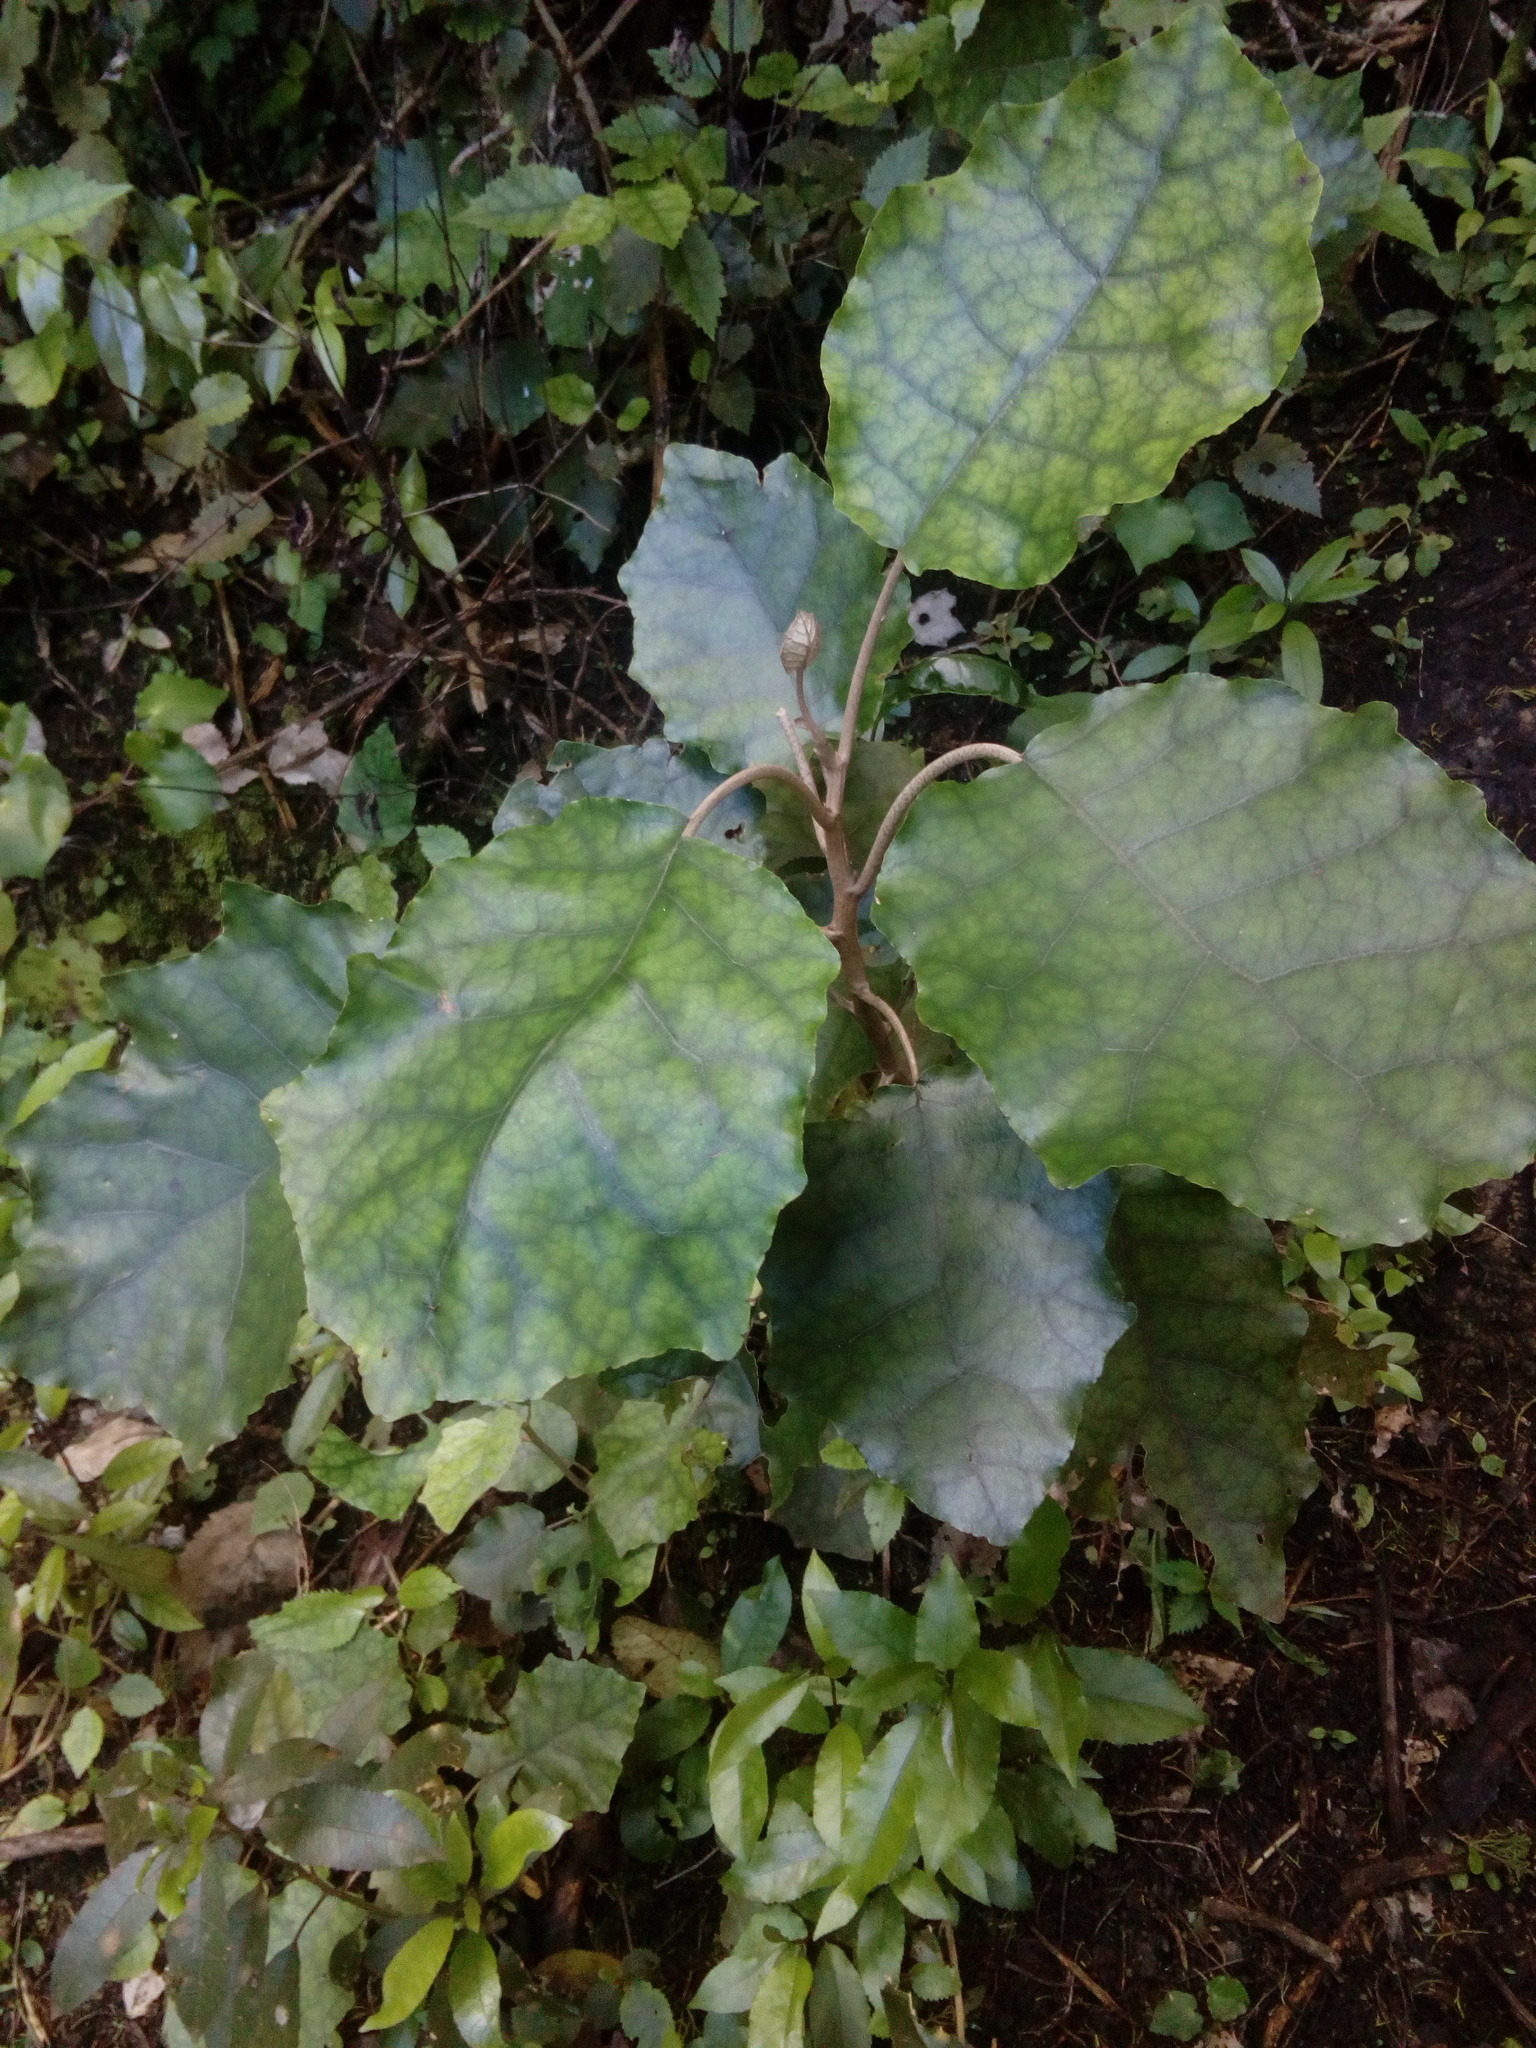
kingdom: Plantae
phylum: Tracheophyta
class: Magnoliopsida
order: Asterales
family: Asteraceae
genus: Brachyglottis
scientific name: Brachyglottis repanda
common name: Hedge ragwort
